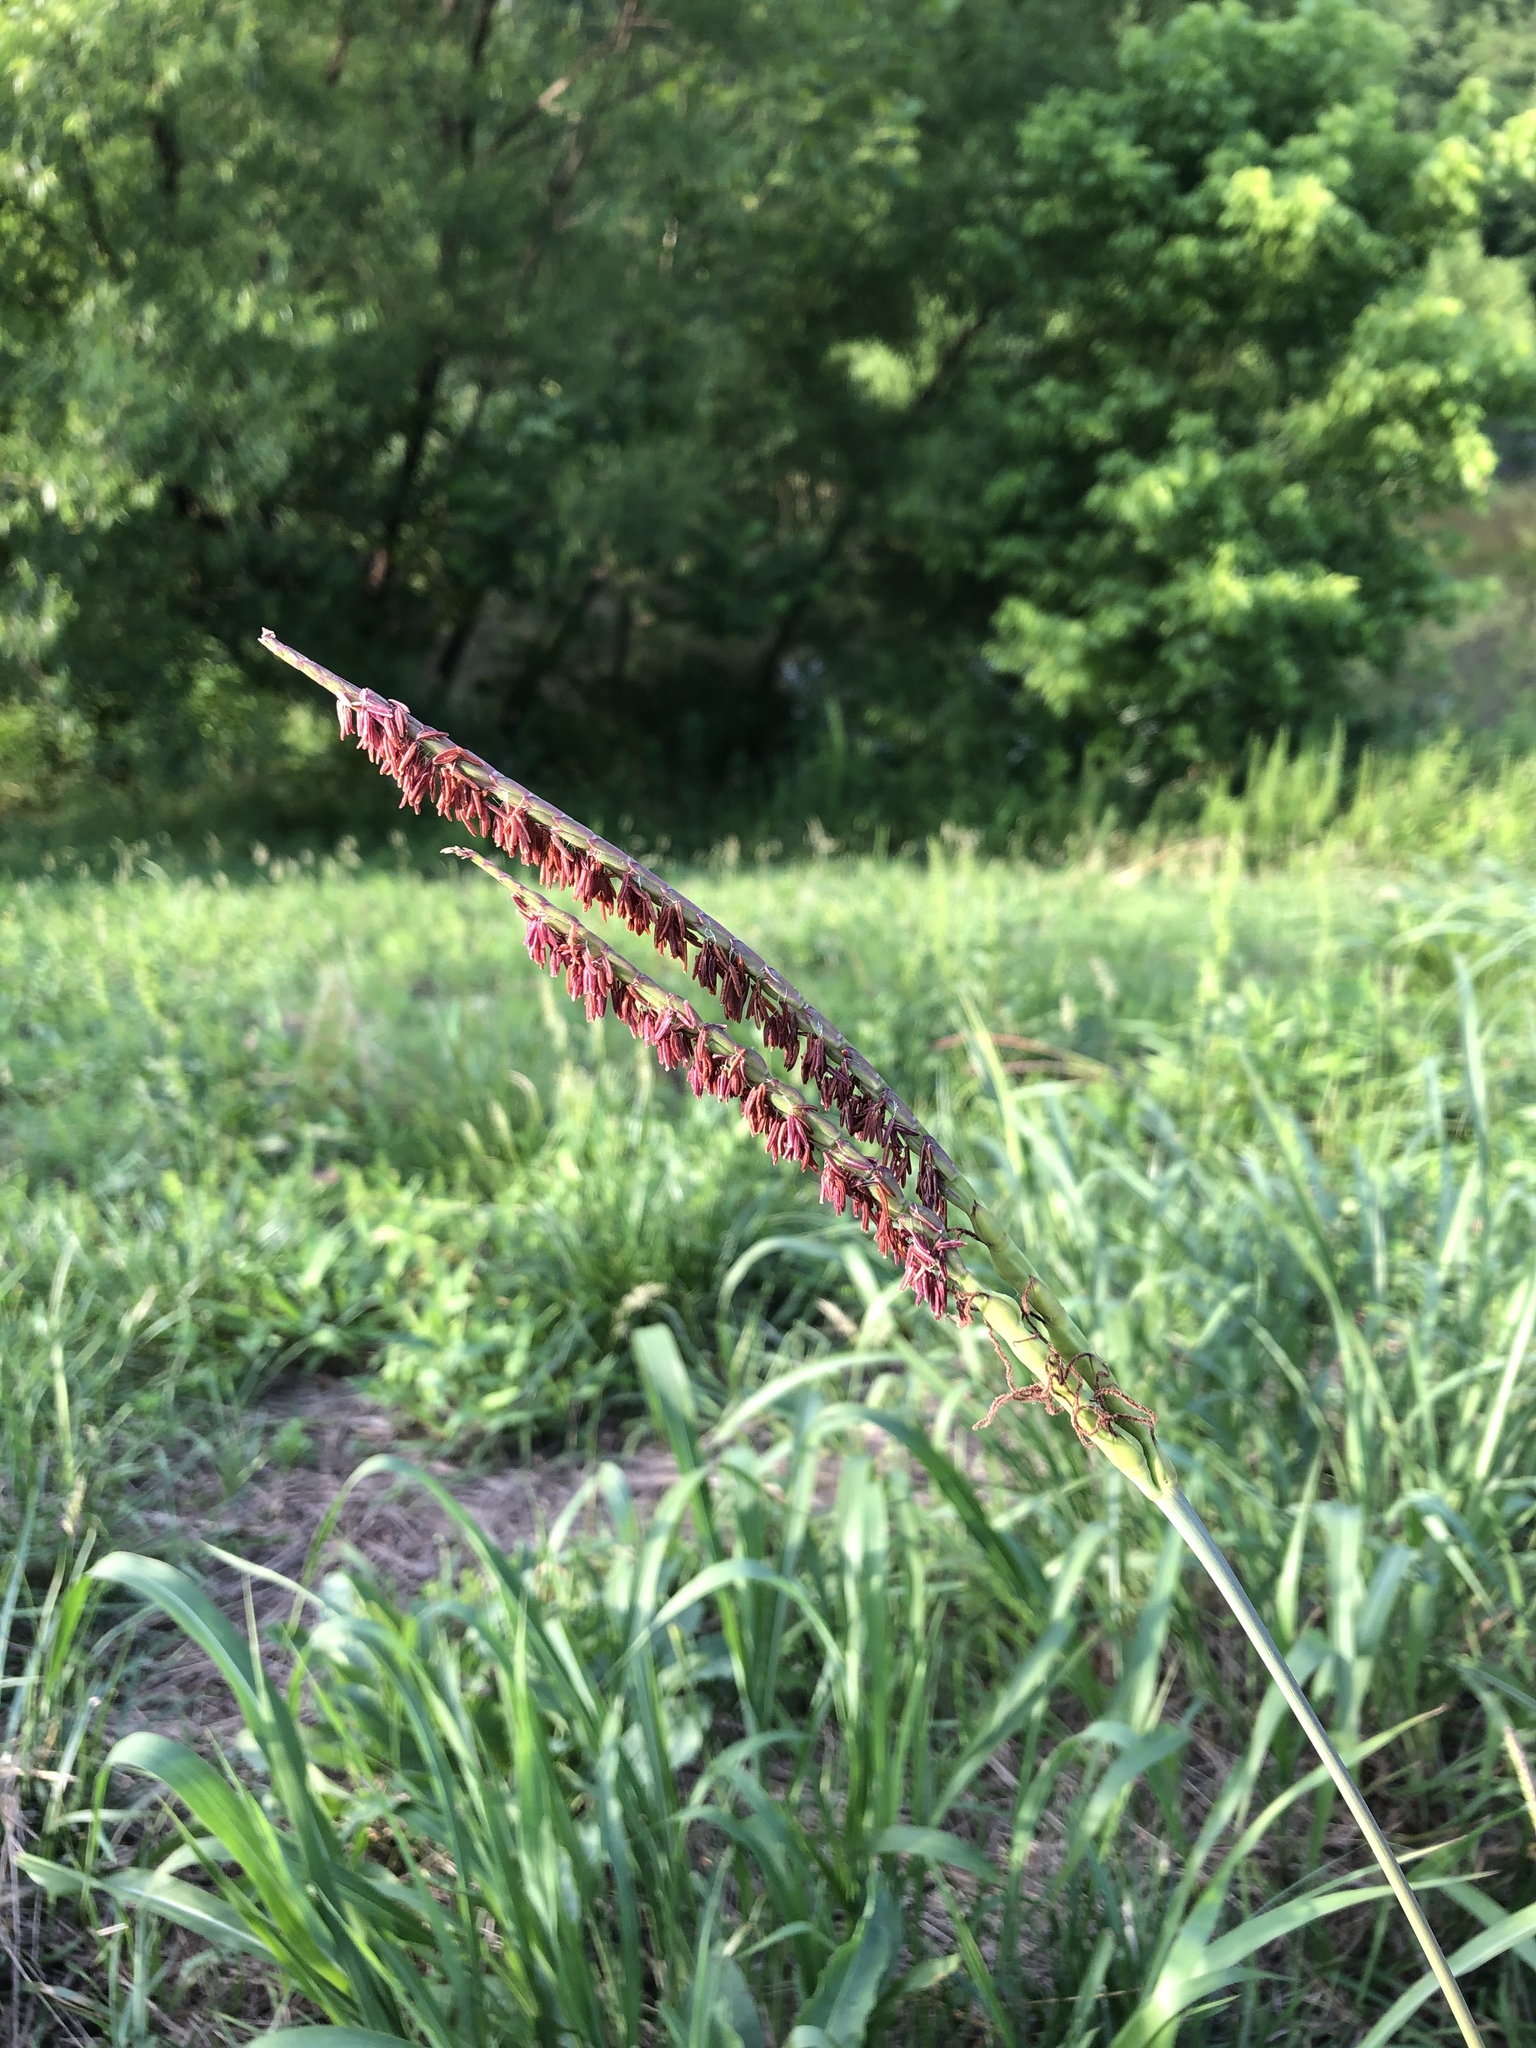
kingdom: Plantae
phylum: Tracheophyta
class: Liliopsida
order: Poales
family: Poaceae
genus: Tripsacum
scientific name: Tripsacum dactyloides
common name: Buffalo-grass
